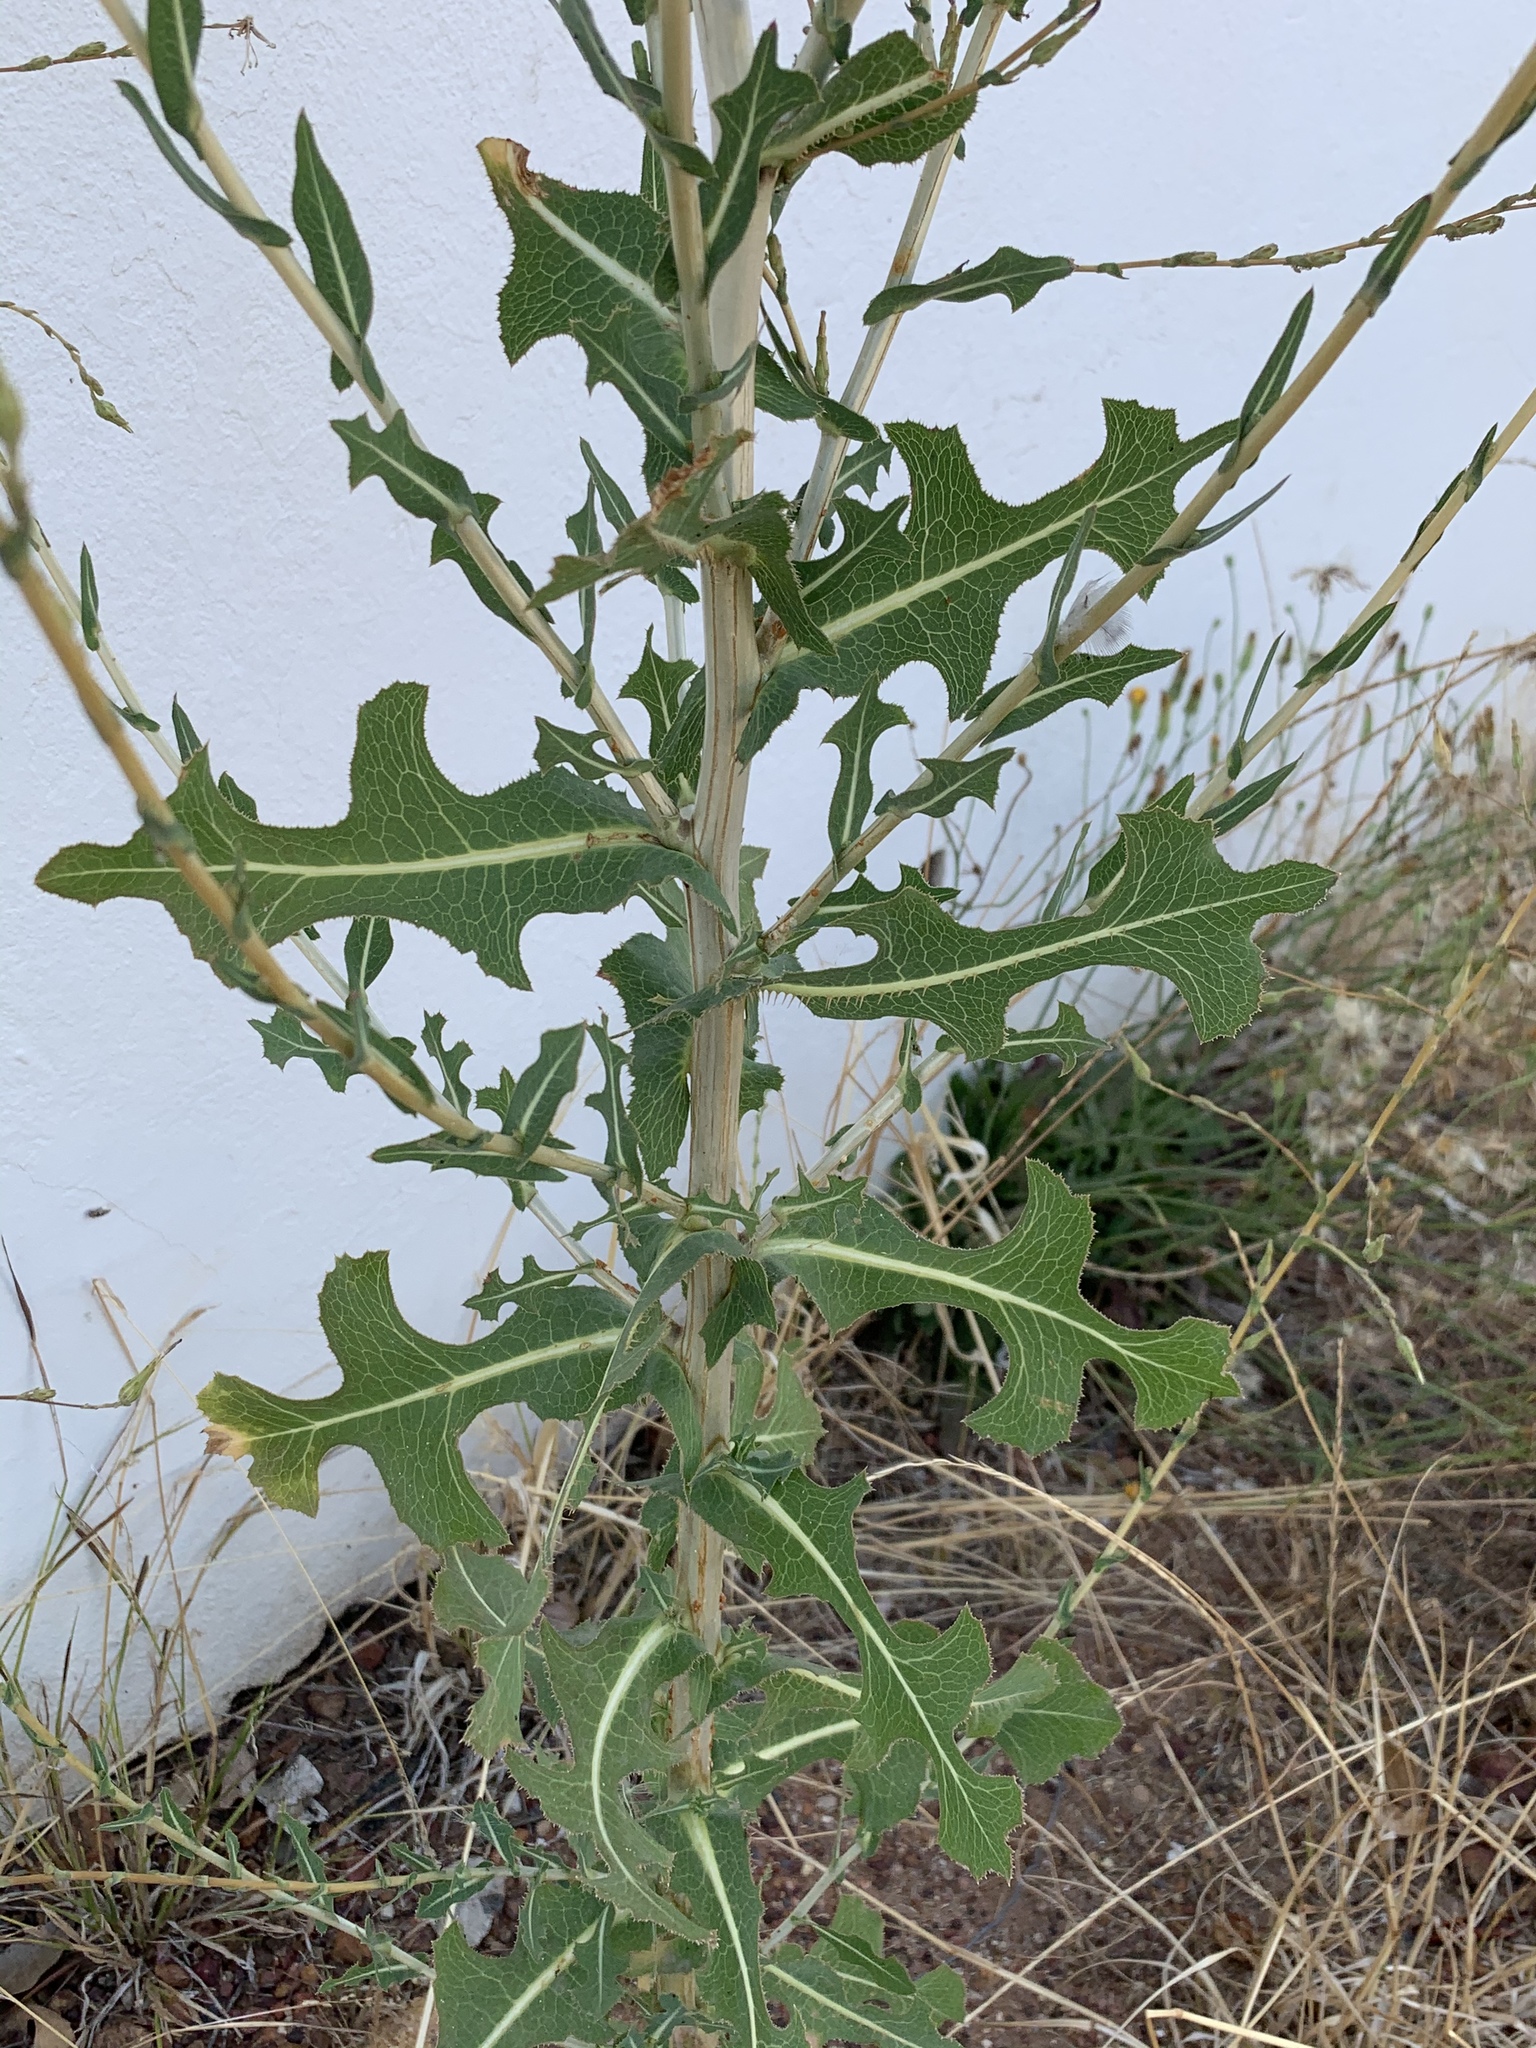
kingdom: Plantae
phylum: Tracheophyta
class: Magnoliopsida
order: Asterales
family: Asteraceae
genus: Lactuca
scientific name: Lactuca serriola
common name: Prickly lettuce
